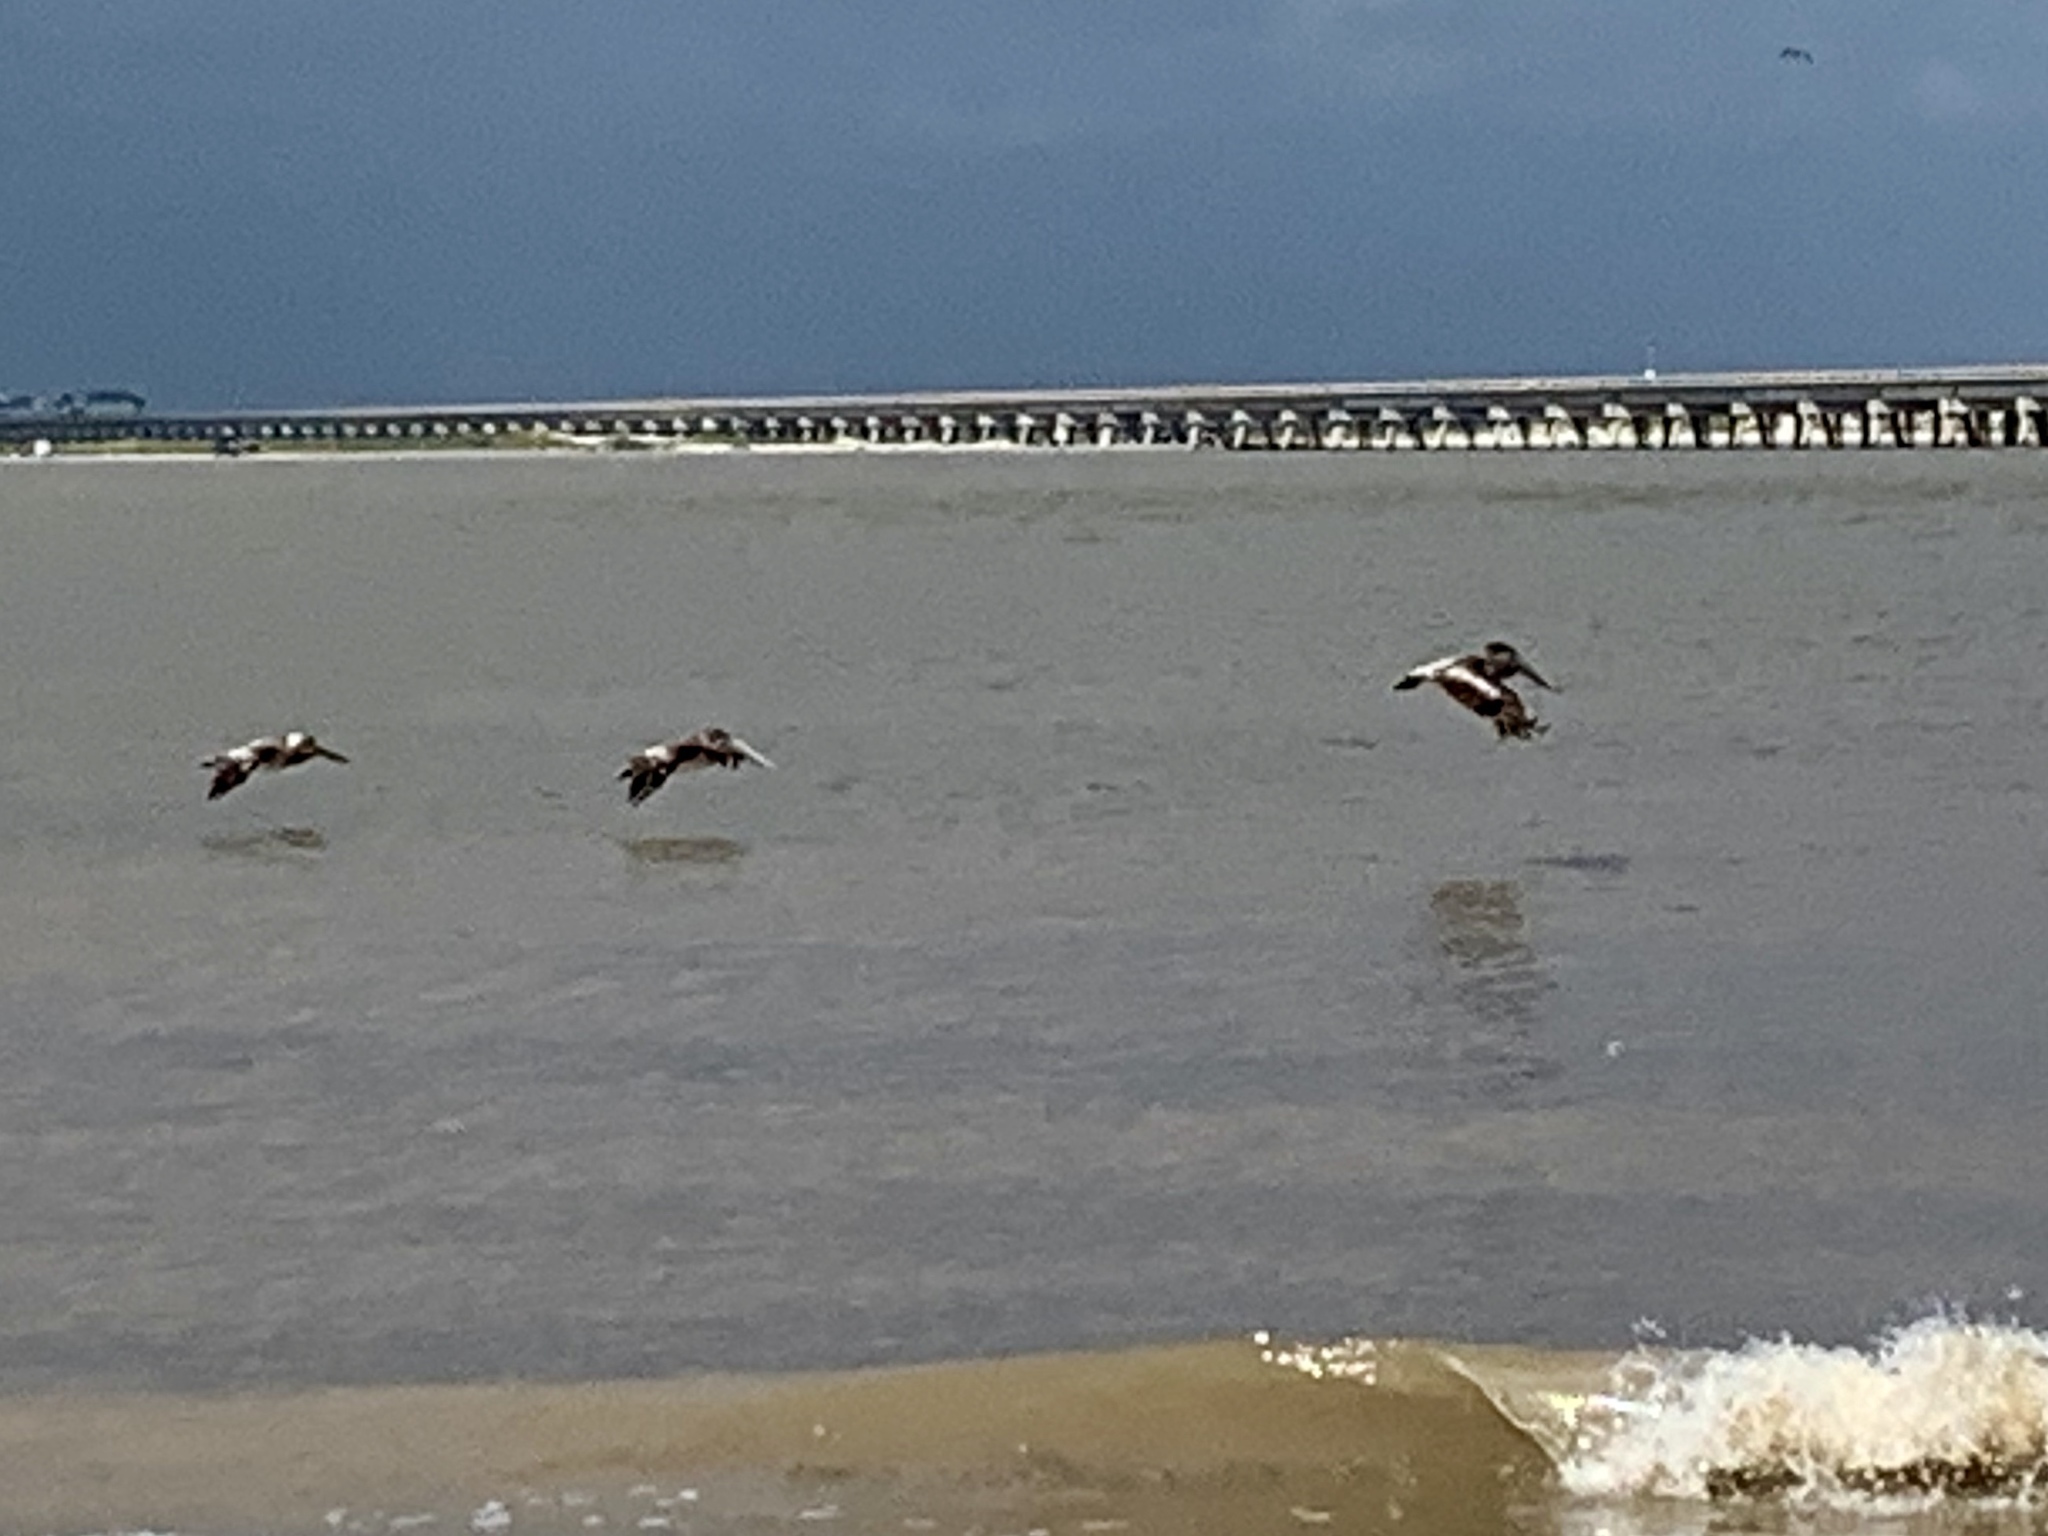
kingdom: Animalia
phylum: Chordata
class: Aves
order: Pelecaniformes
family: Pelecanidae
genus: Pelecanus
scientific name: Pelecanus occidentalis
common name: Brown pelican
